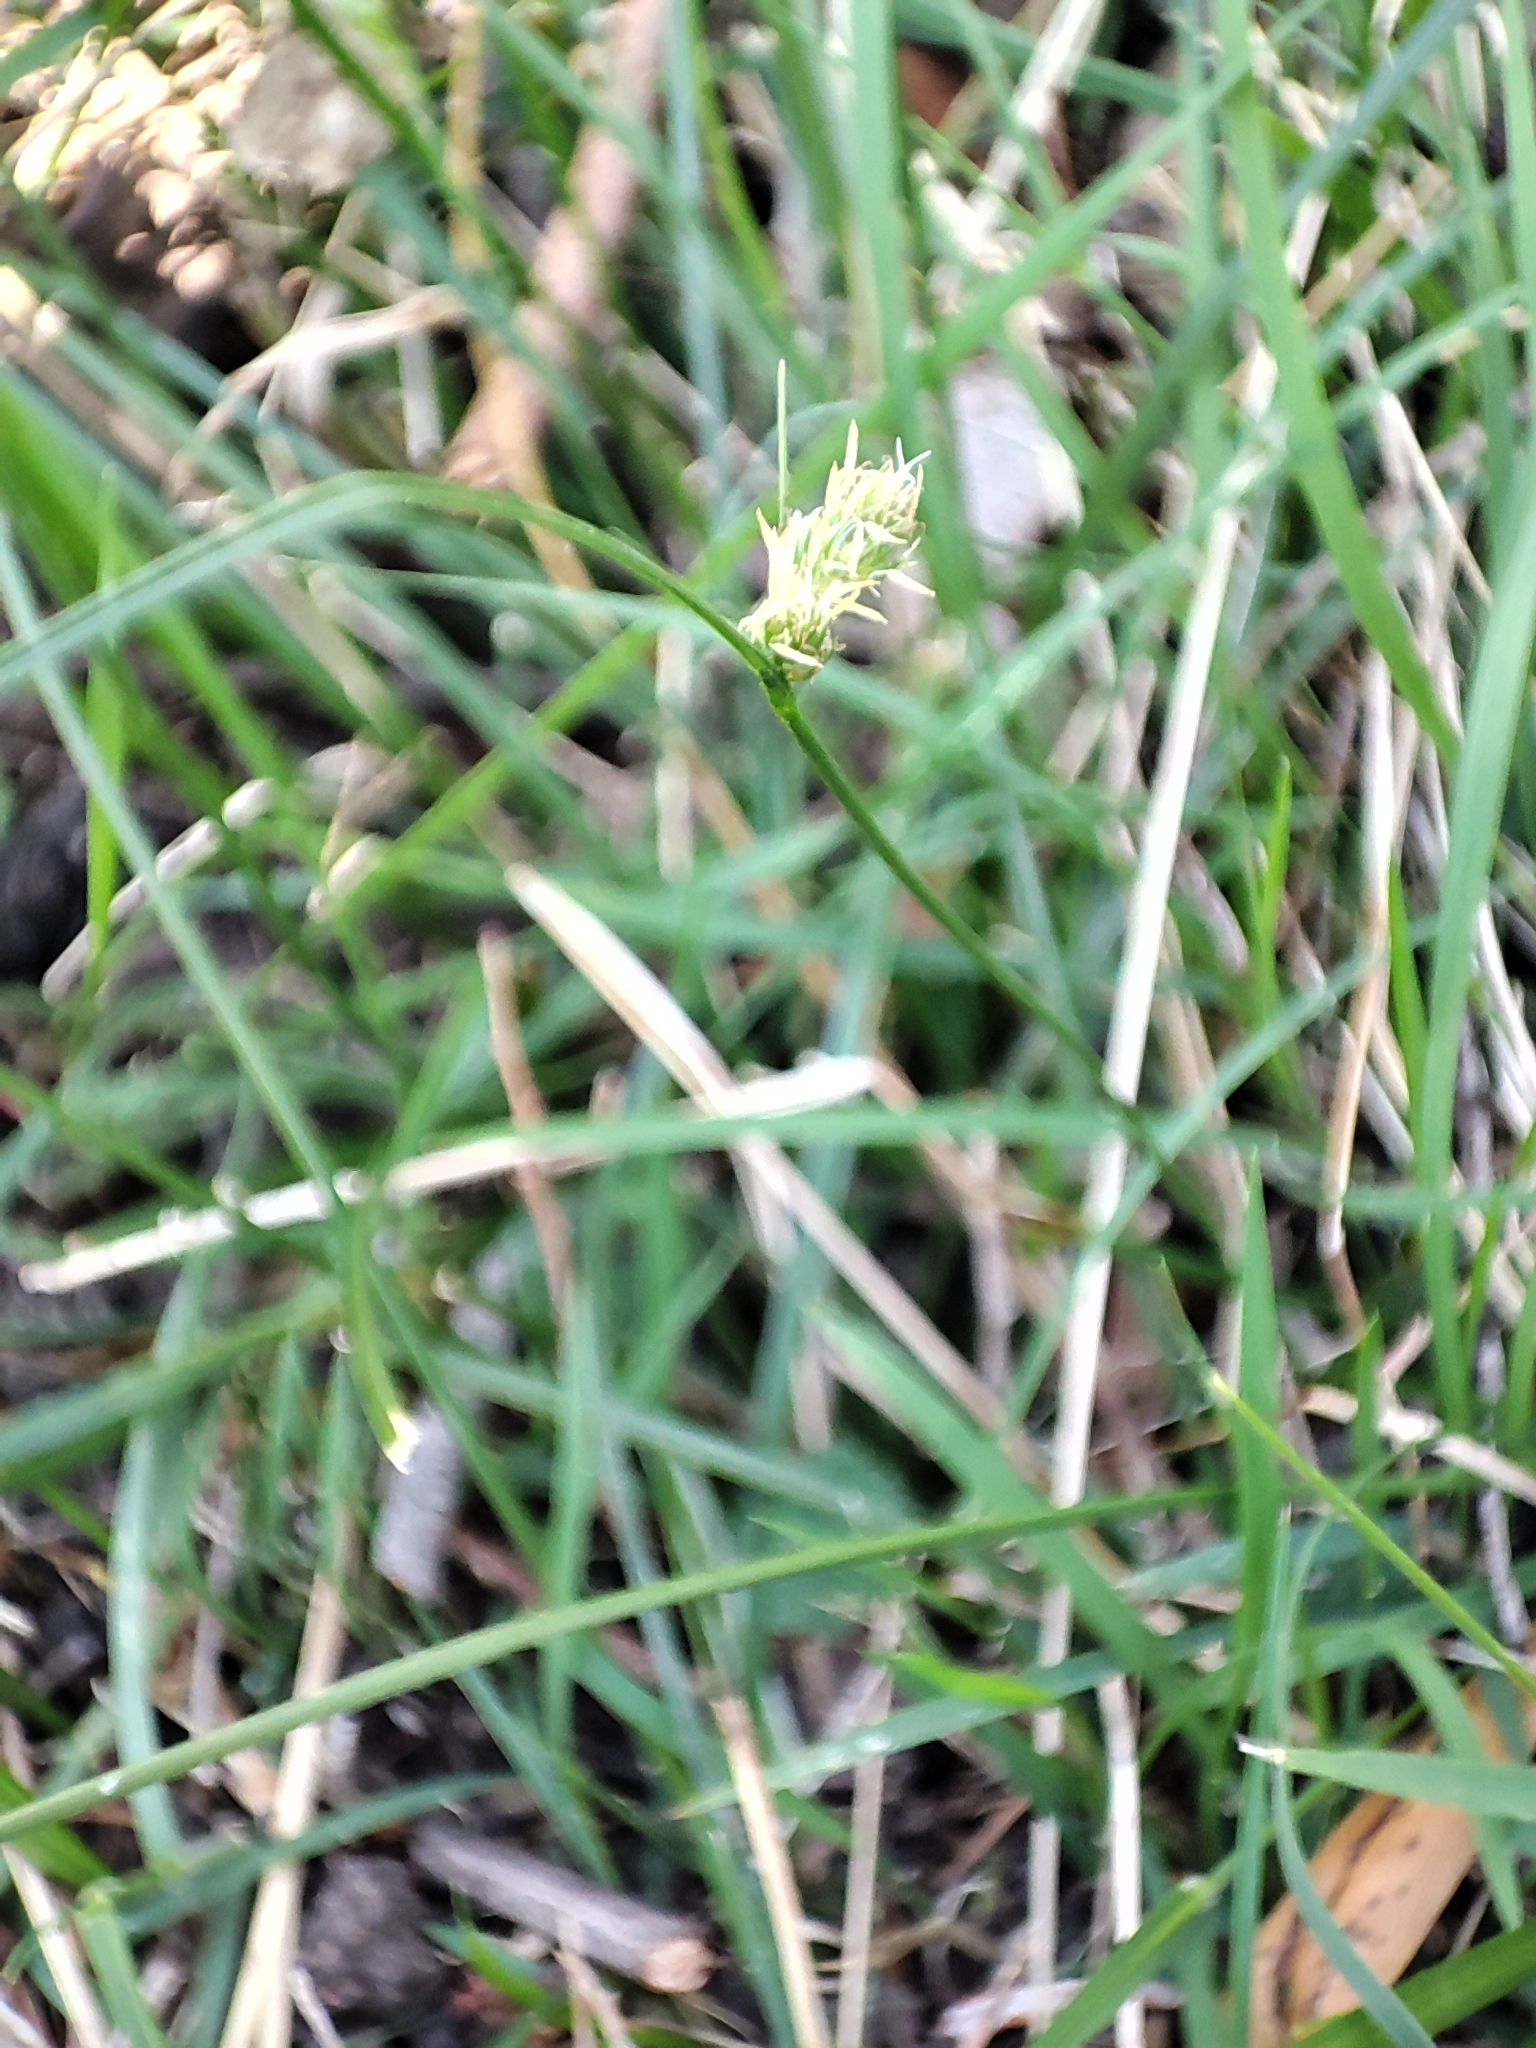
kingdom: Plantae
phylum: Tracheophyta
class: Liliopsida
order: Poales
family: Cyperaceae
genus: Carex
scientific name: Carex inversa
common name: Knob sedge
